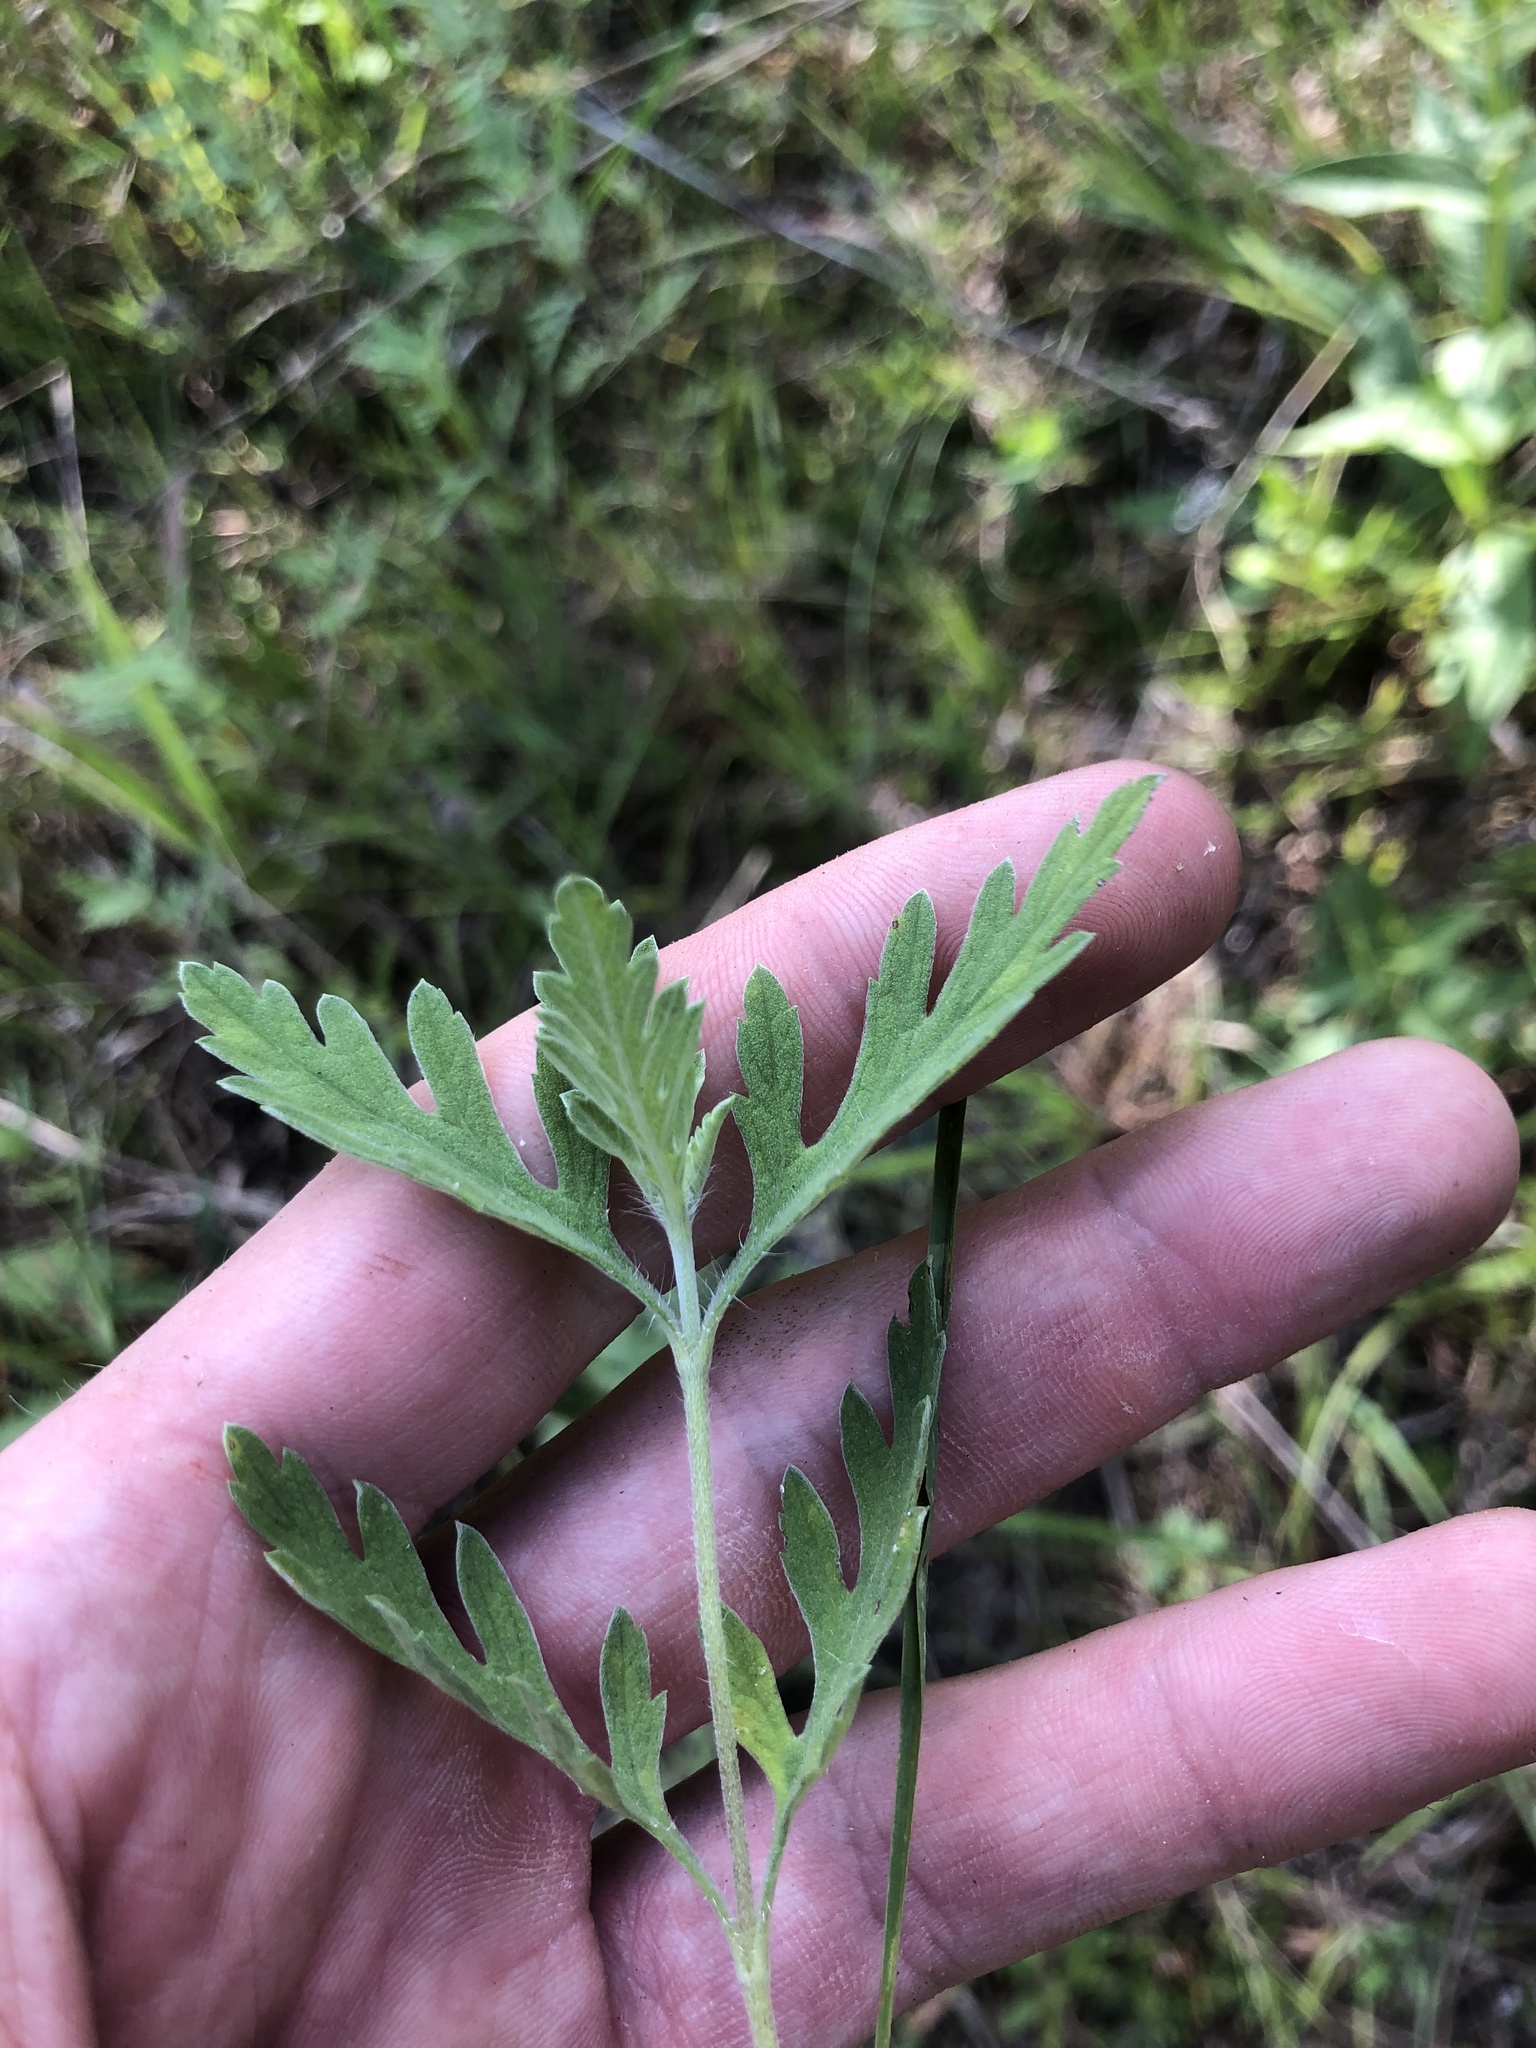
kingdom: Plantae
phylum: Tracheophyta
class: Magnoliopsida
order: Asterales
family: Asteraceae
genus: Ambrosia
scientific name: Ambrosia psilostachya
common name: Perennial ragweed
